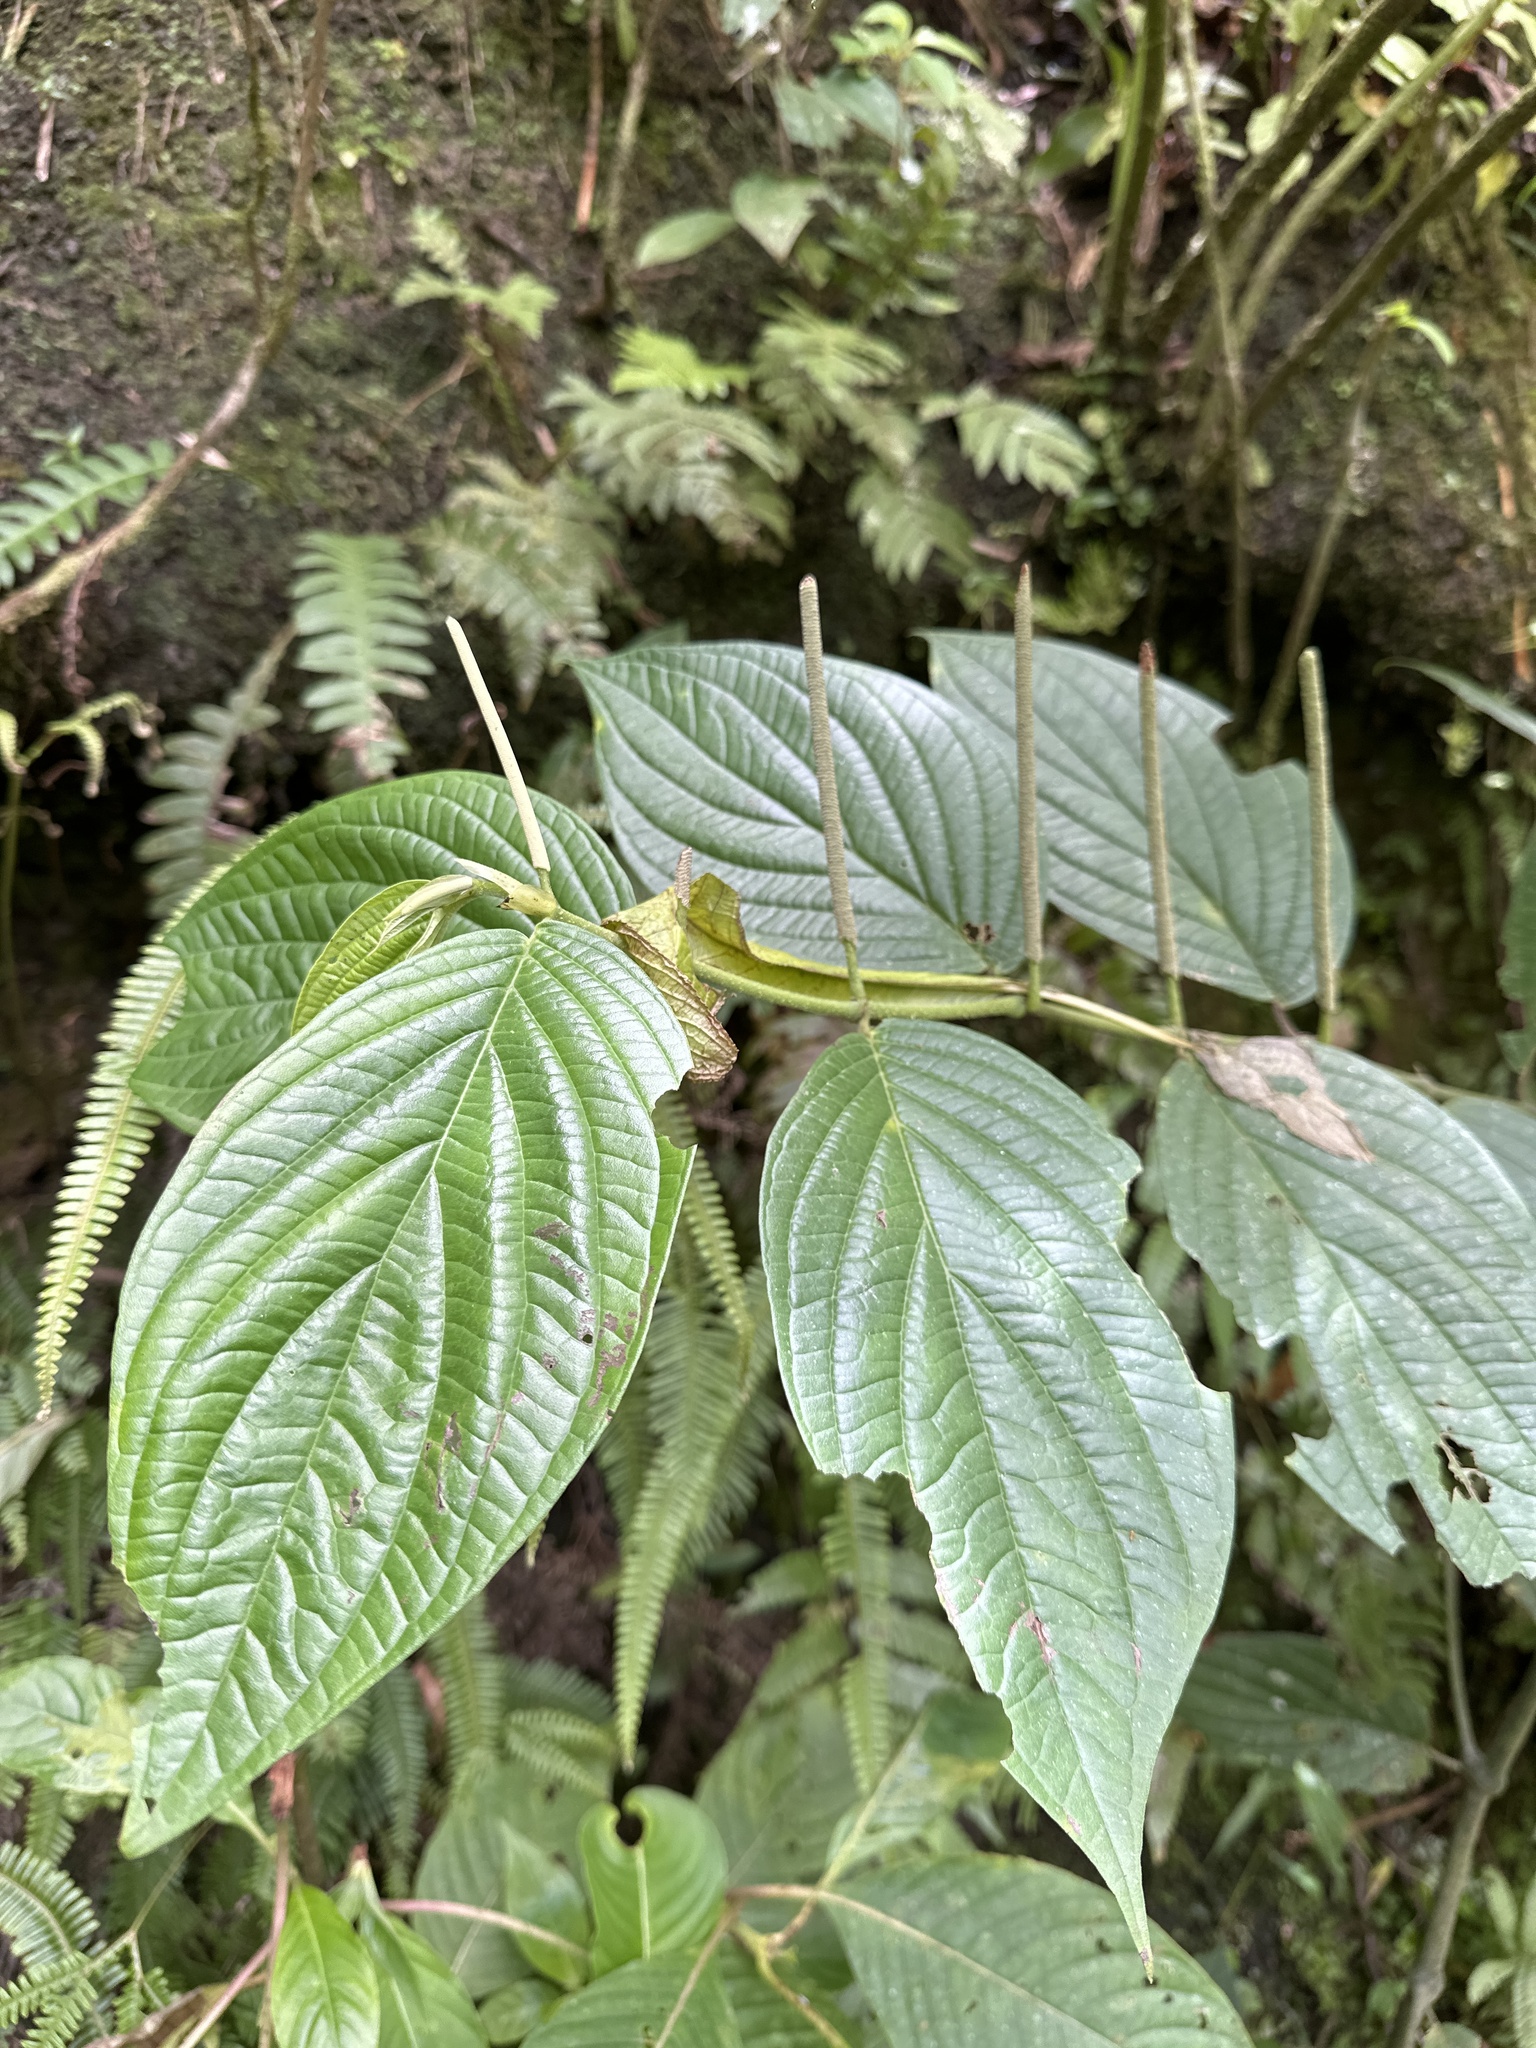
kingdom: Plantae
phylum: Tracheophyta
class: Magnoliopsida
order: Piperales
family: Piperaceae
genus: Piper
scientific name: Piper hispidum
